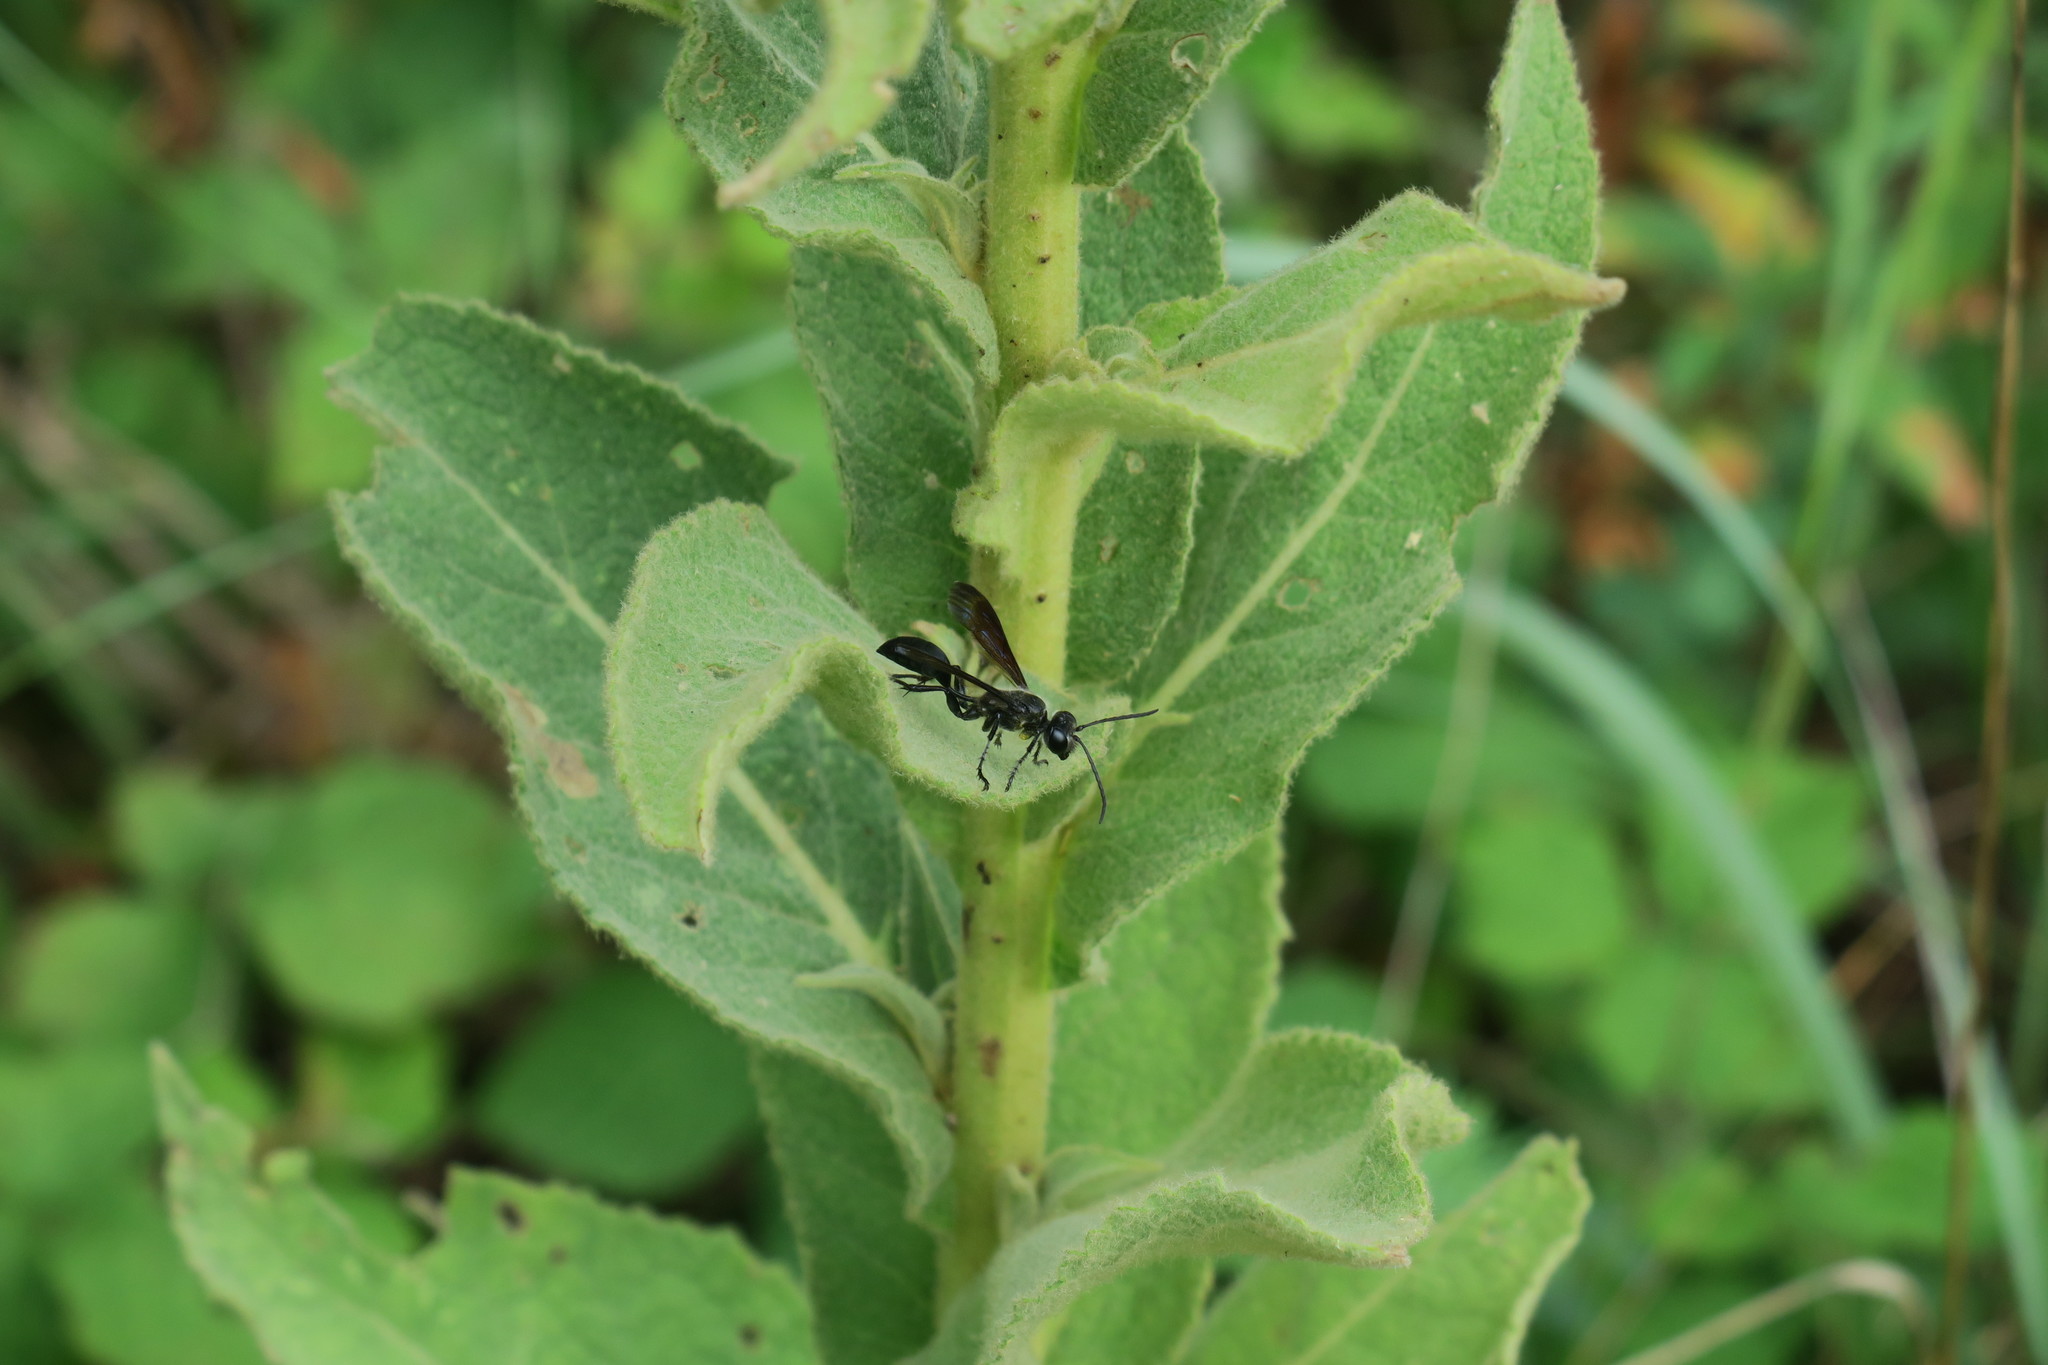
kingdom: Animalia
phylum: Arthropoda
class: Insecta
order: Hymenoptera
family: Sphecidae
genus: Isodontia
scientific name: Isodontia mexicana
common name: Mud dauber
